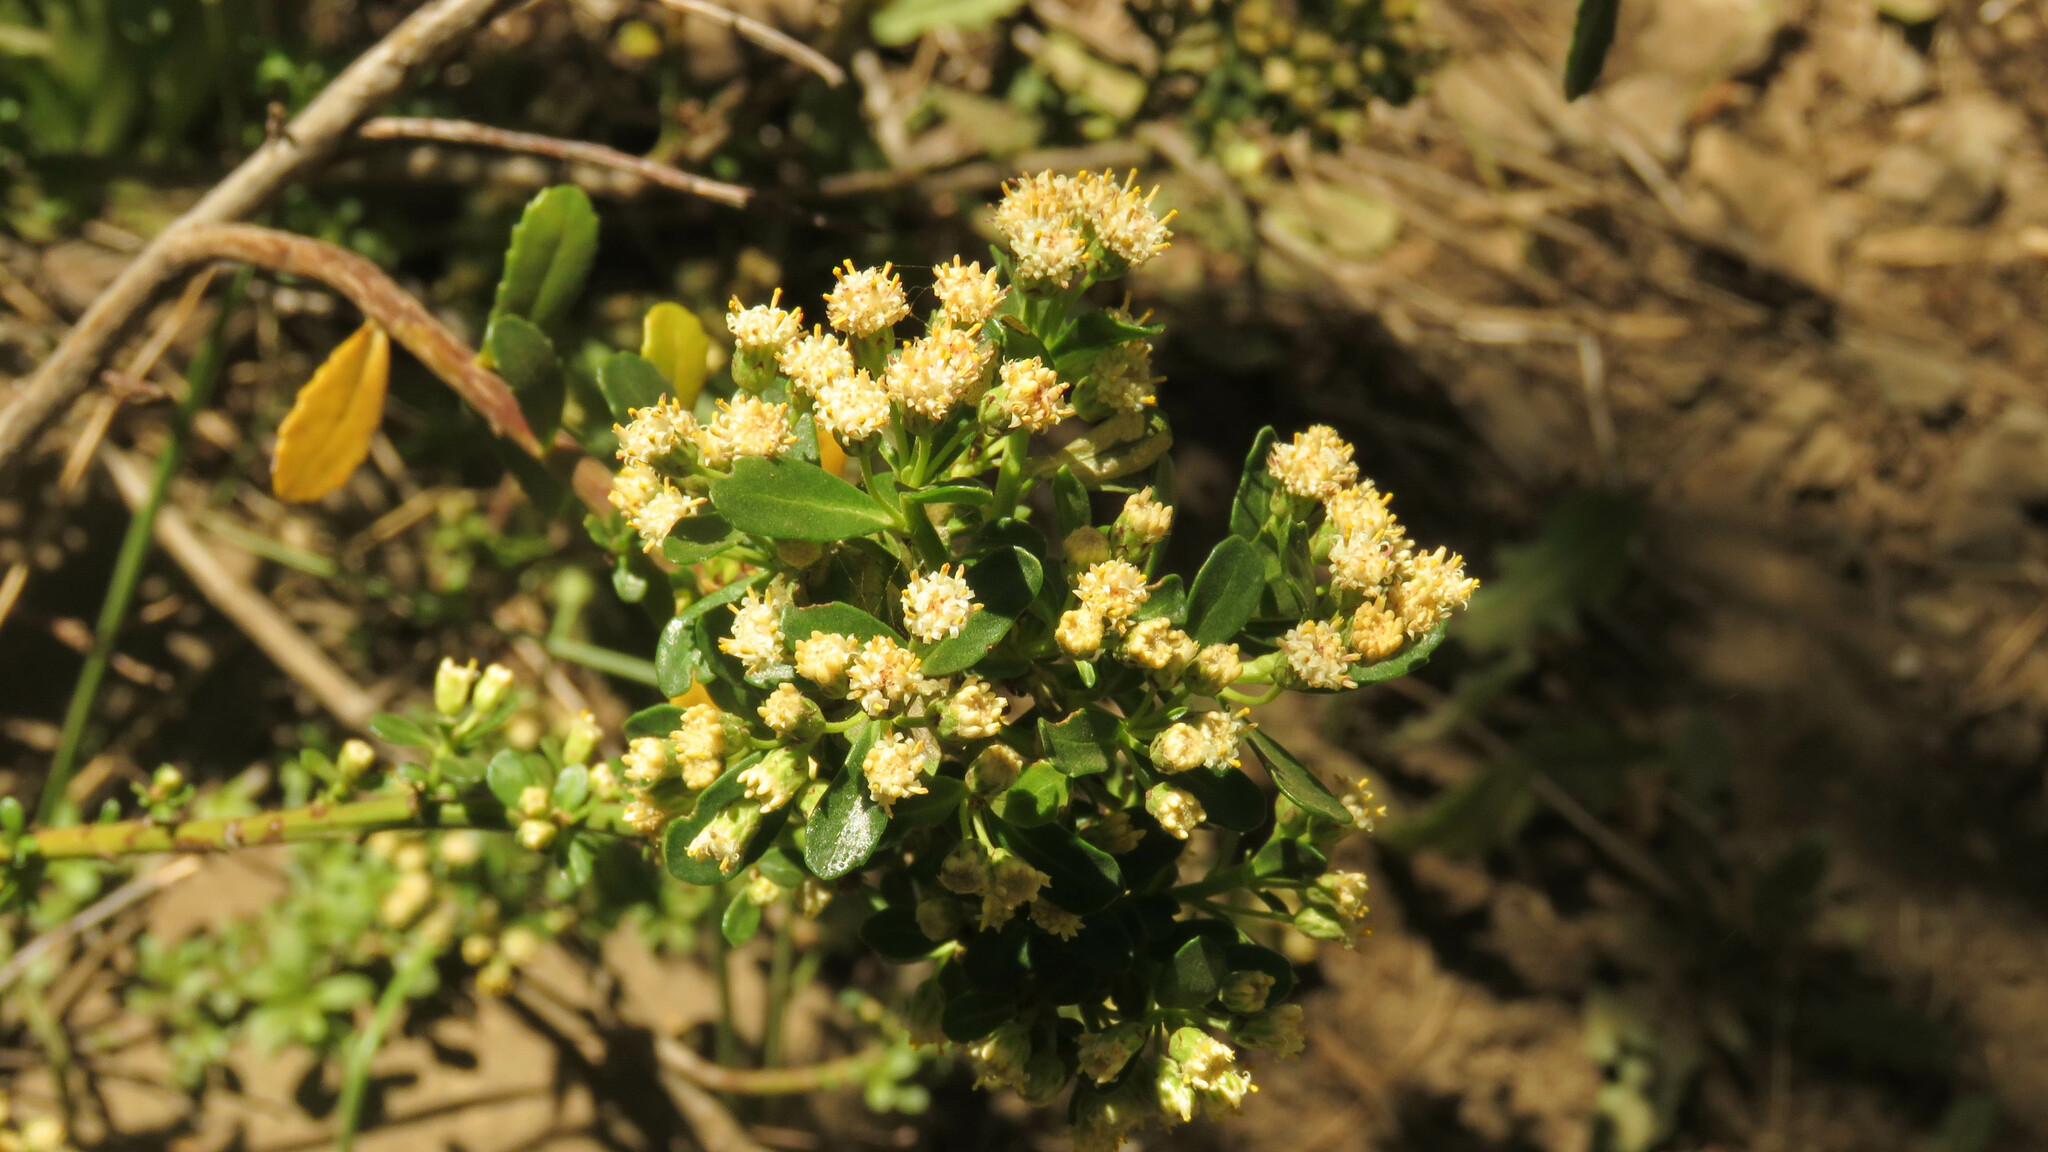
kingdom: Plantae
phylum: Tracheophyta
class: Magnoliopsida
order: Asterales
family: Asteraceae
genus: Baccharis
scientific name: Baccharis obovata
